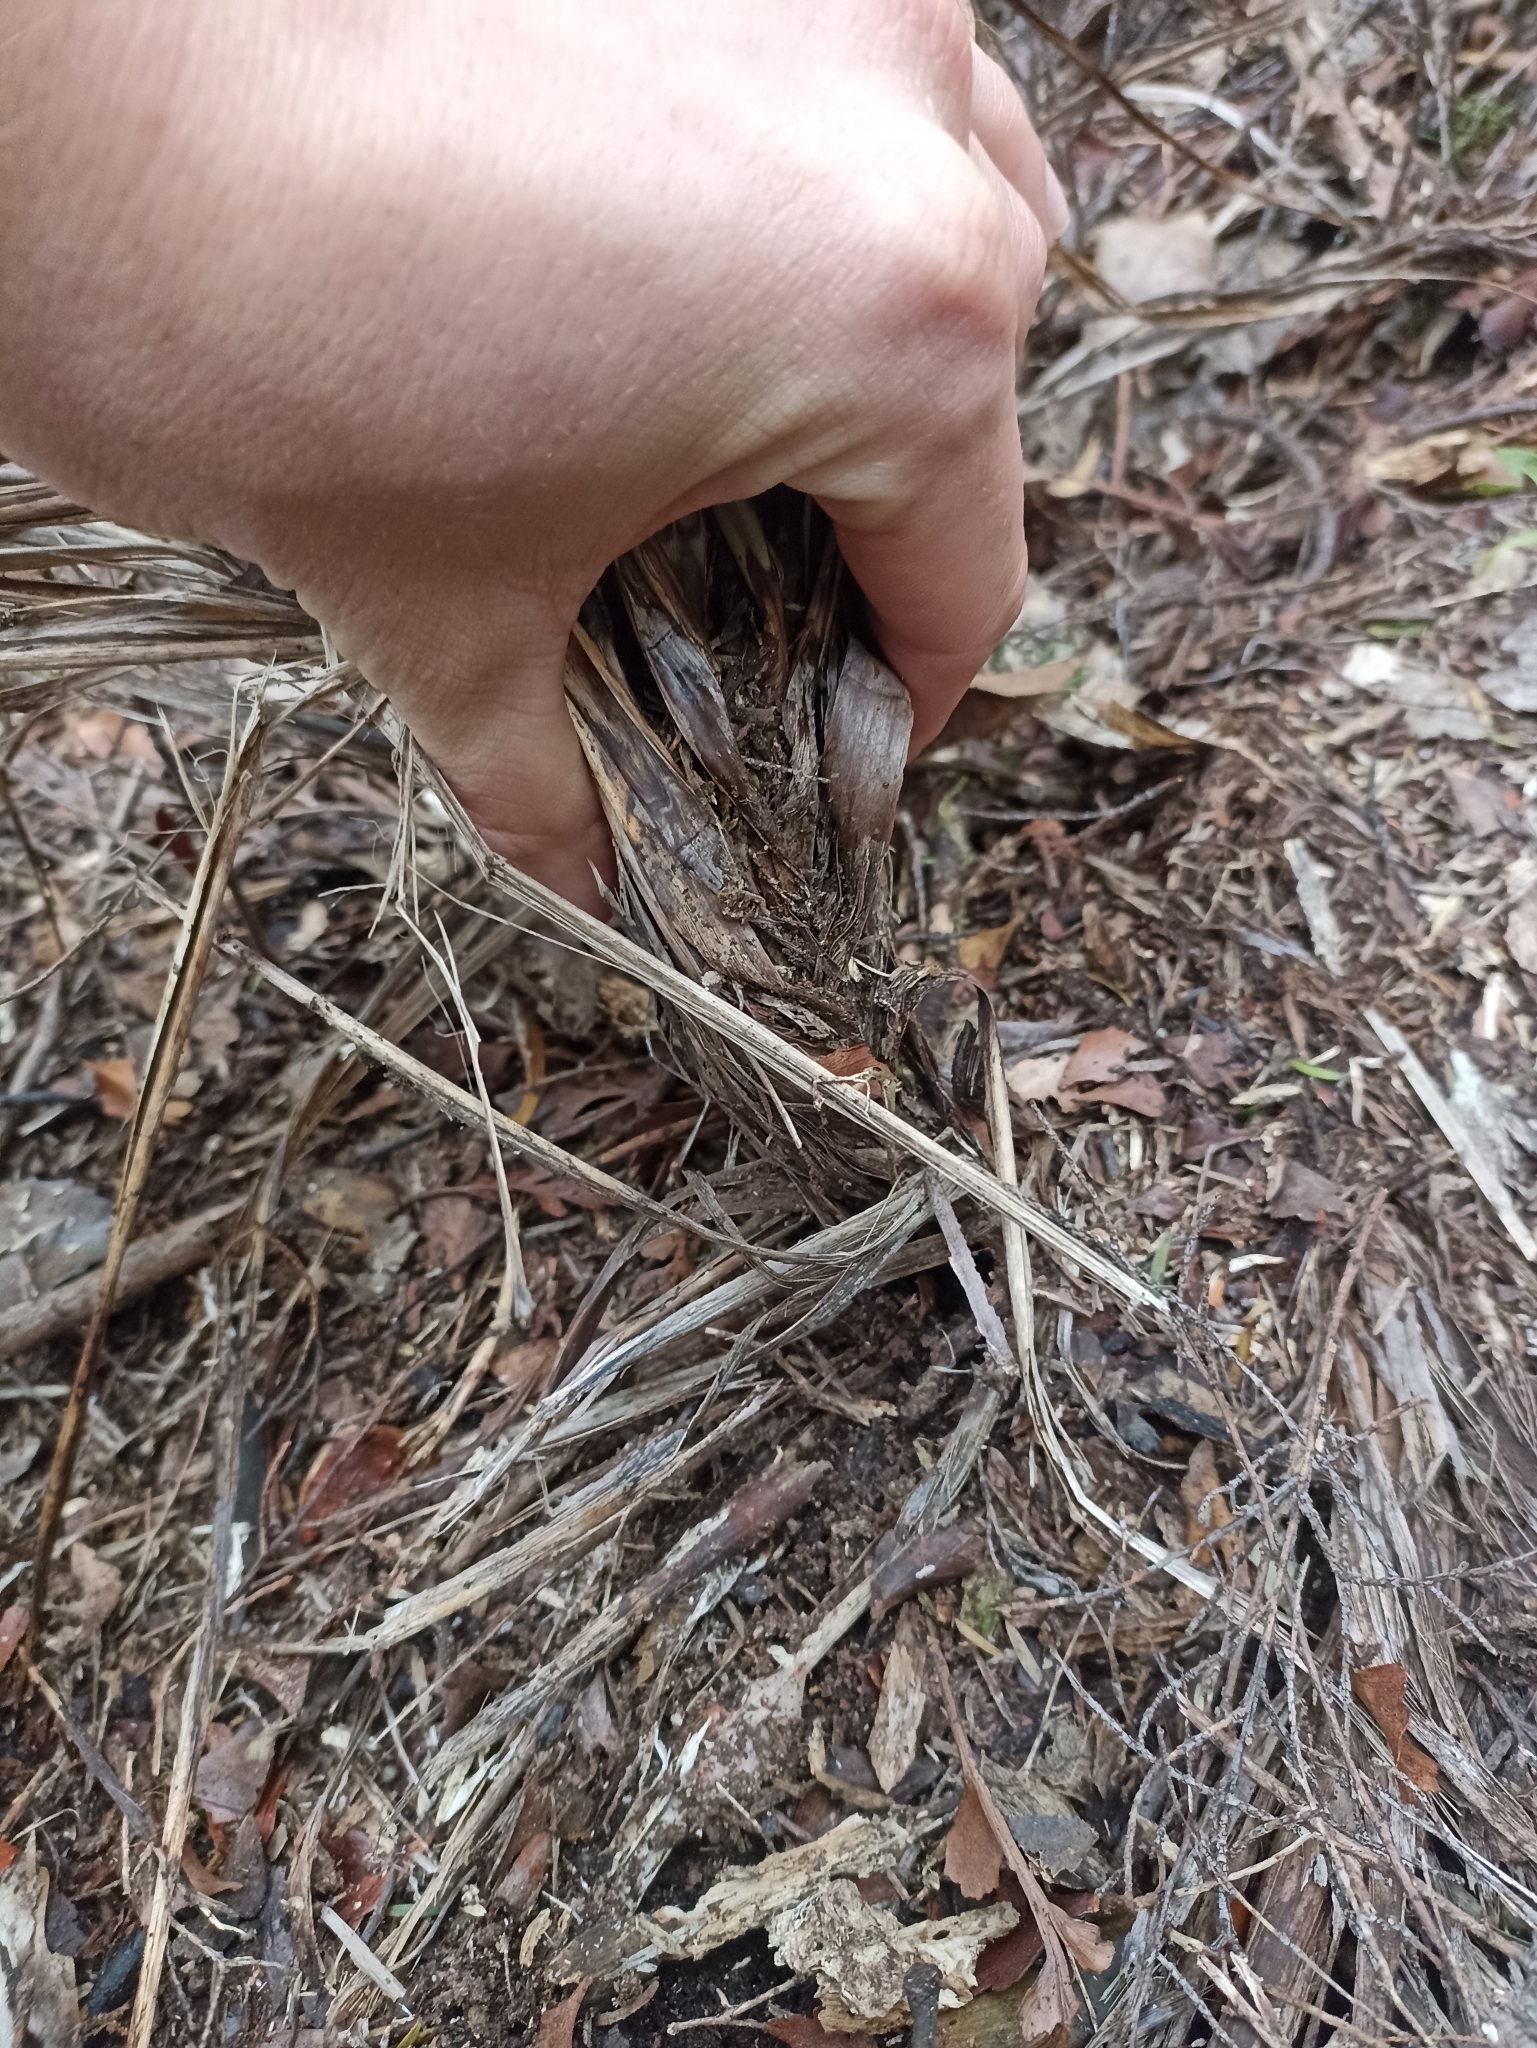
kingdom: Plantae
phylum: Tracheophyta
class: Liliopsida
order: Asparagales
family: Asparagaceae
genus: Cordyline
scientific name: Cordyline pumilio
